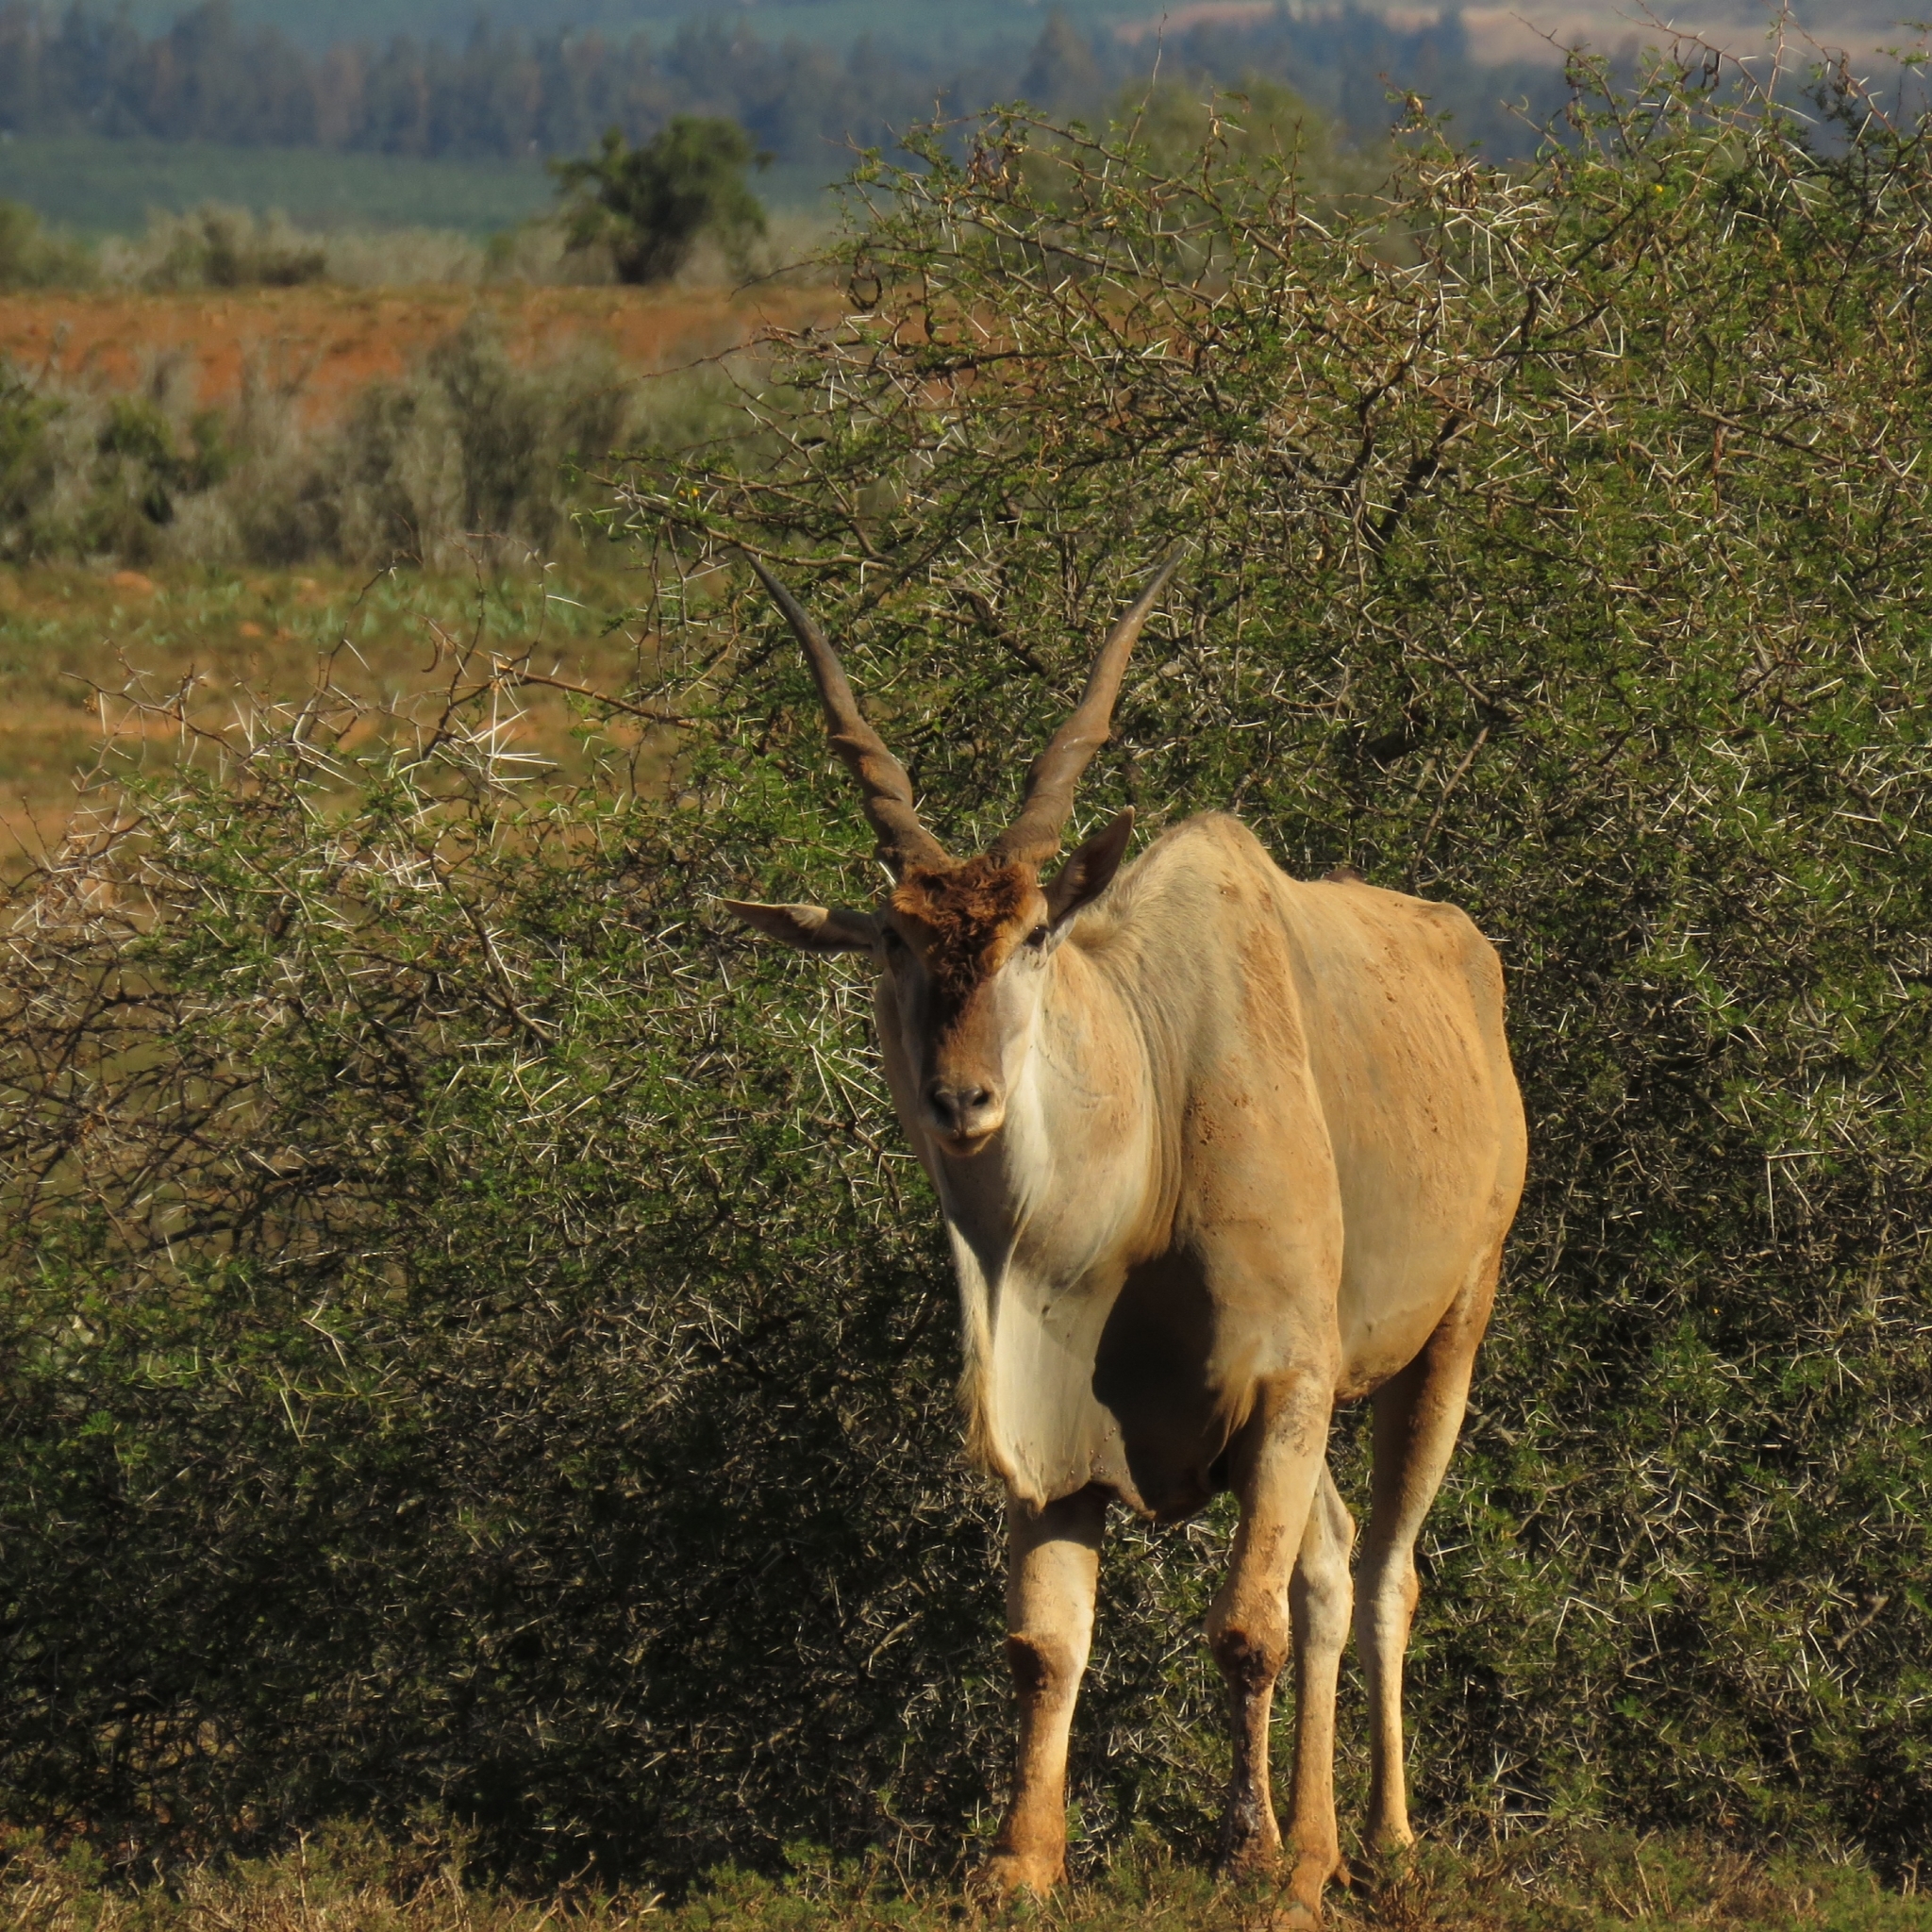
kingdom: Animalia
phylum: Chordata
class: Mammalia
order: Artiodactyla
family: Bovidae
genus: Taurotragus
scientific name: Taurotragus oryx
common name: Common eland
